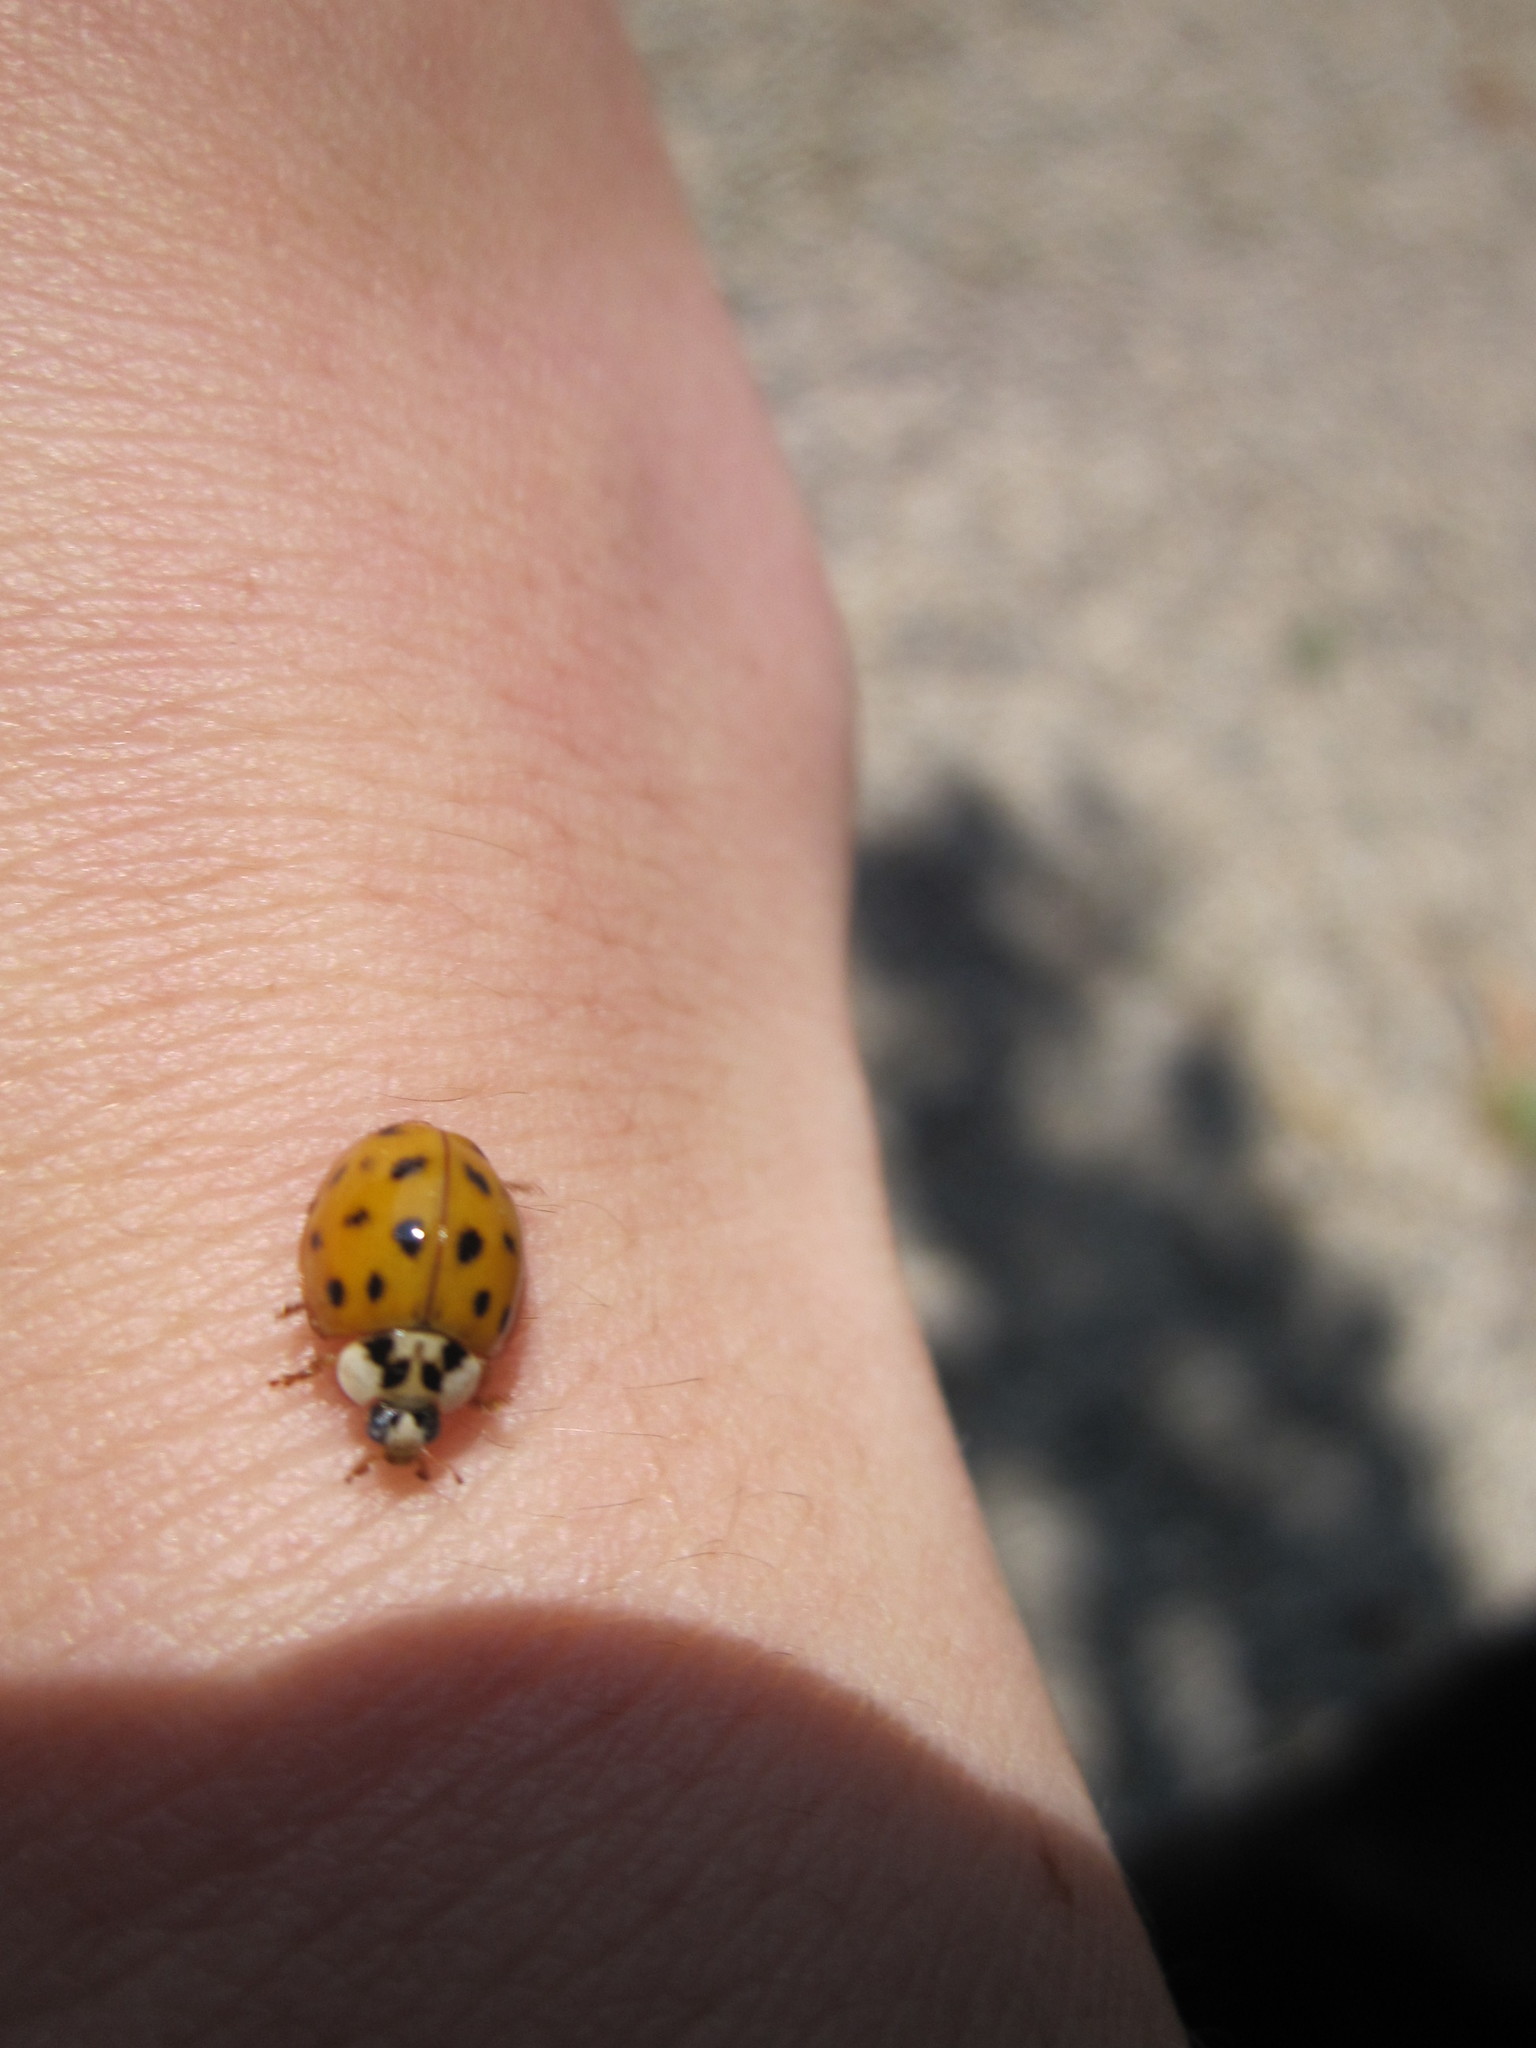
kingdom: Animalia
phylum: Arthropoda
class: Insecta
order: Coleoptera
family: Coccinellidae
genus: Harmonia
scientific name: Harmonia axyridis
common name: Harlequin ladybird
